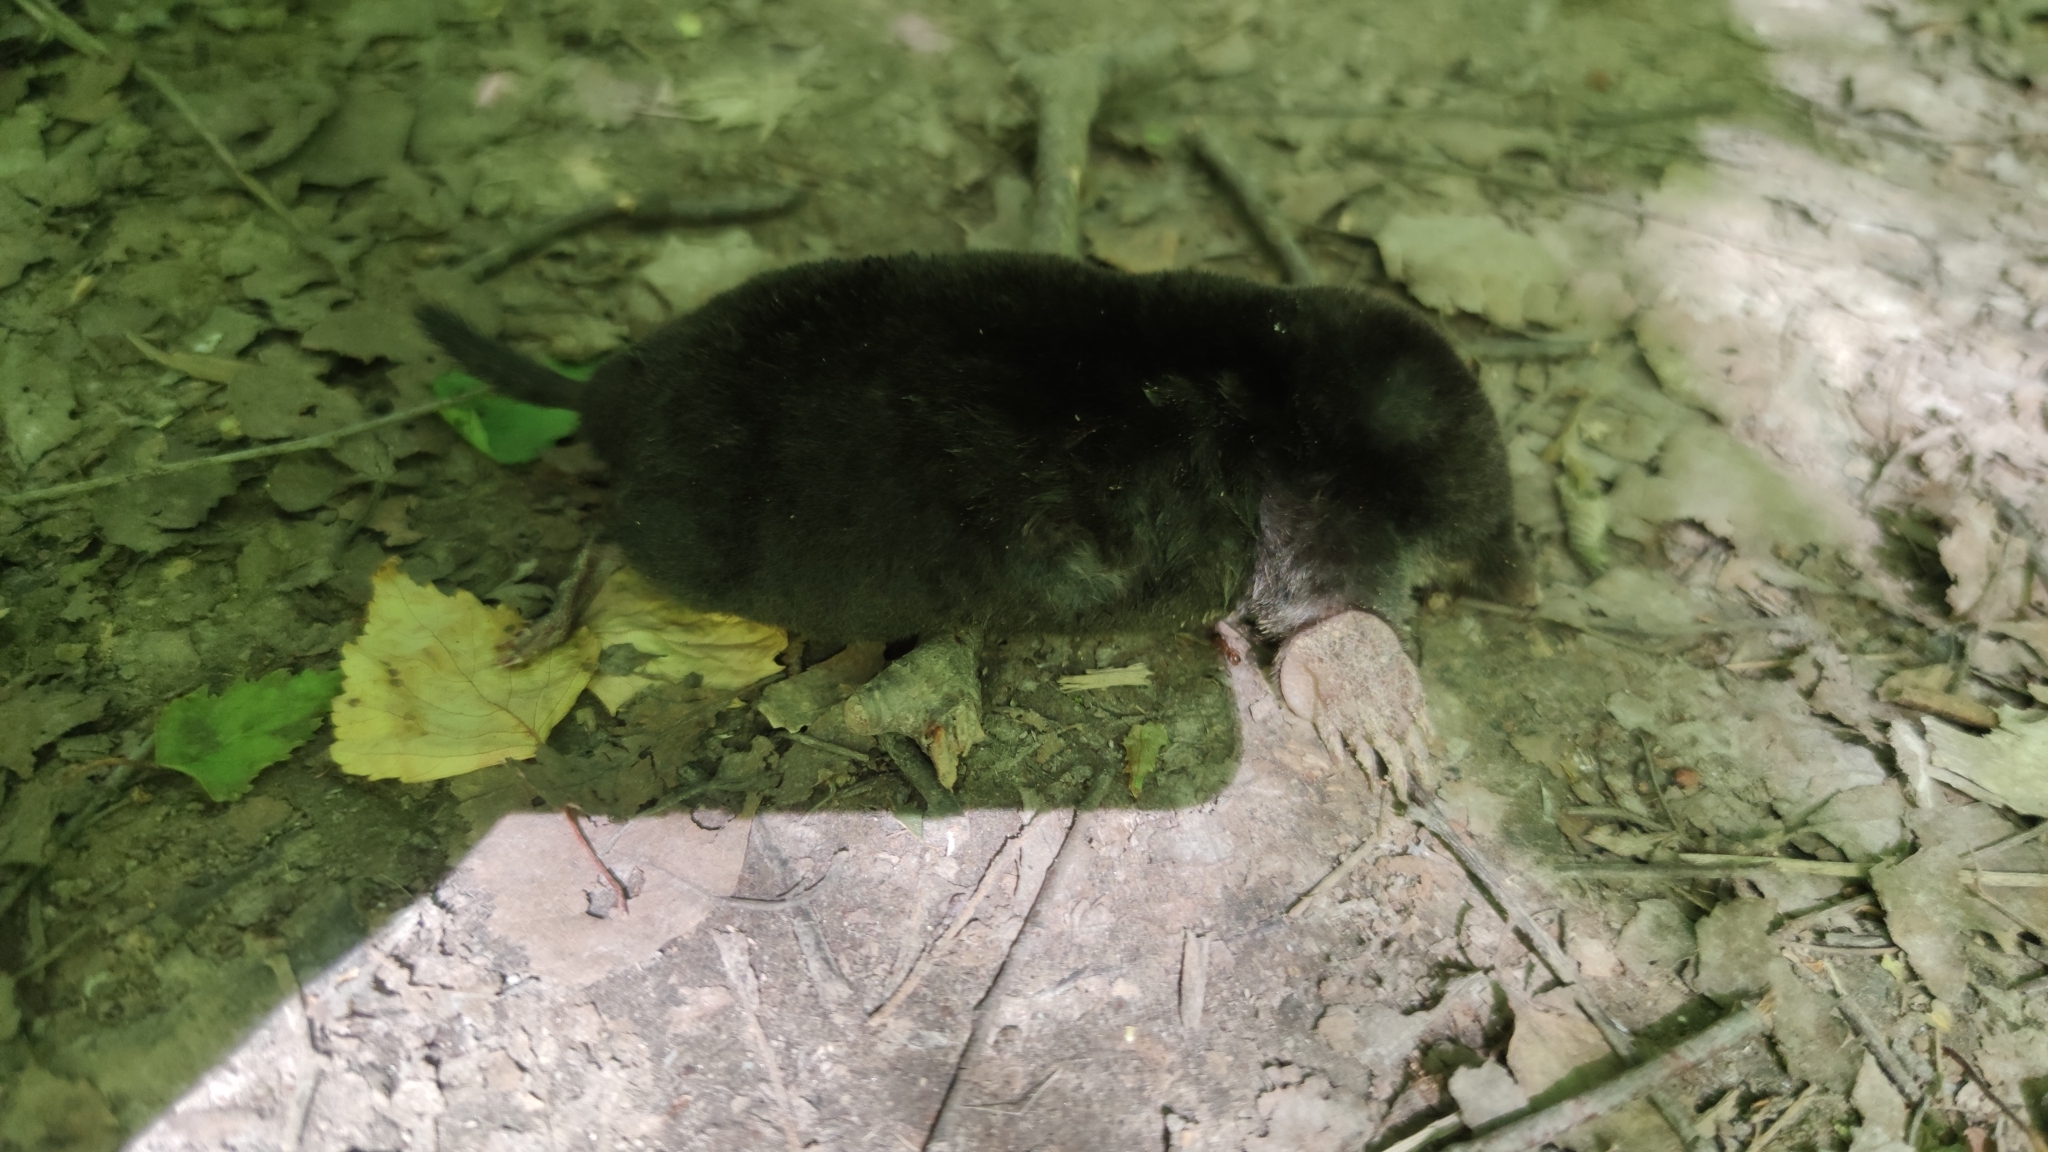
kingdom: Animalia
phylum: Chordata
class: Mammalia
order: Soricomorpha
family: Talpidae
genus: Talpa
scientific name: Talpa europaea
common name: European mole
